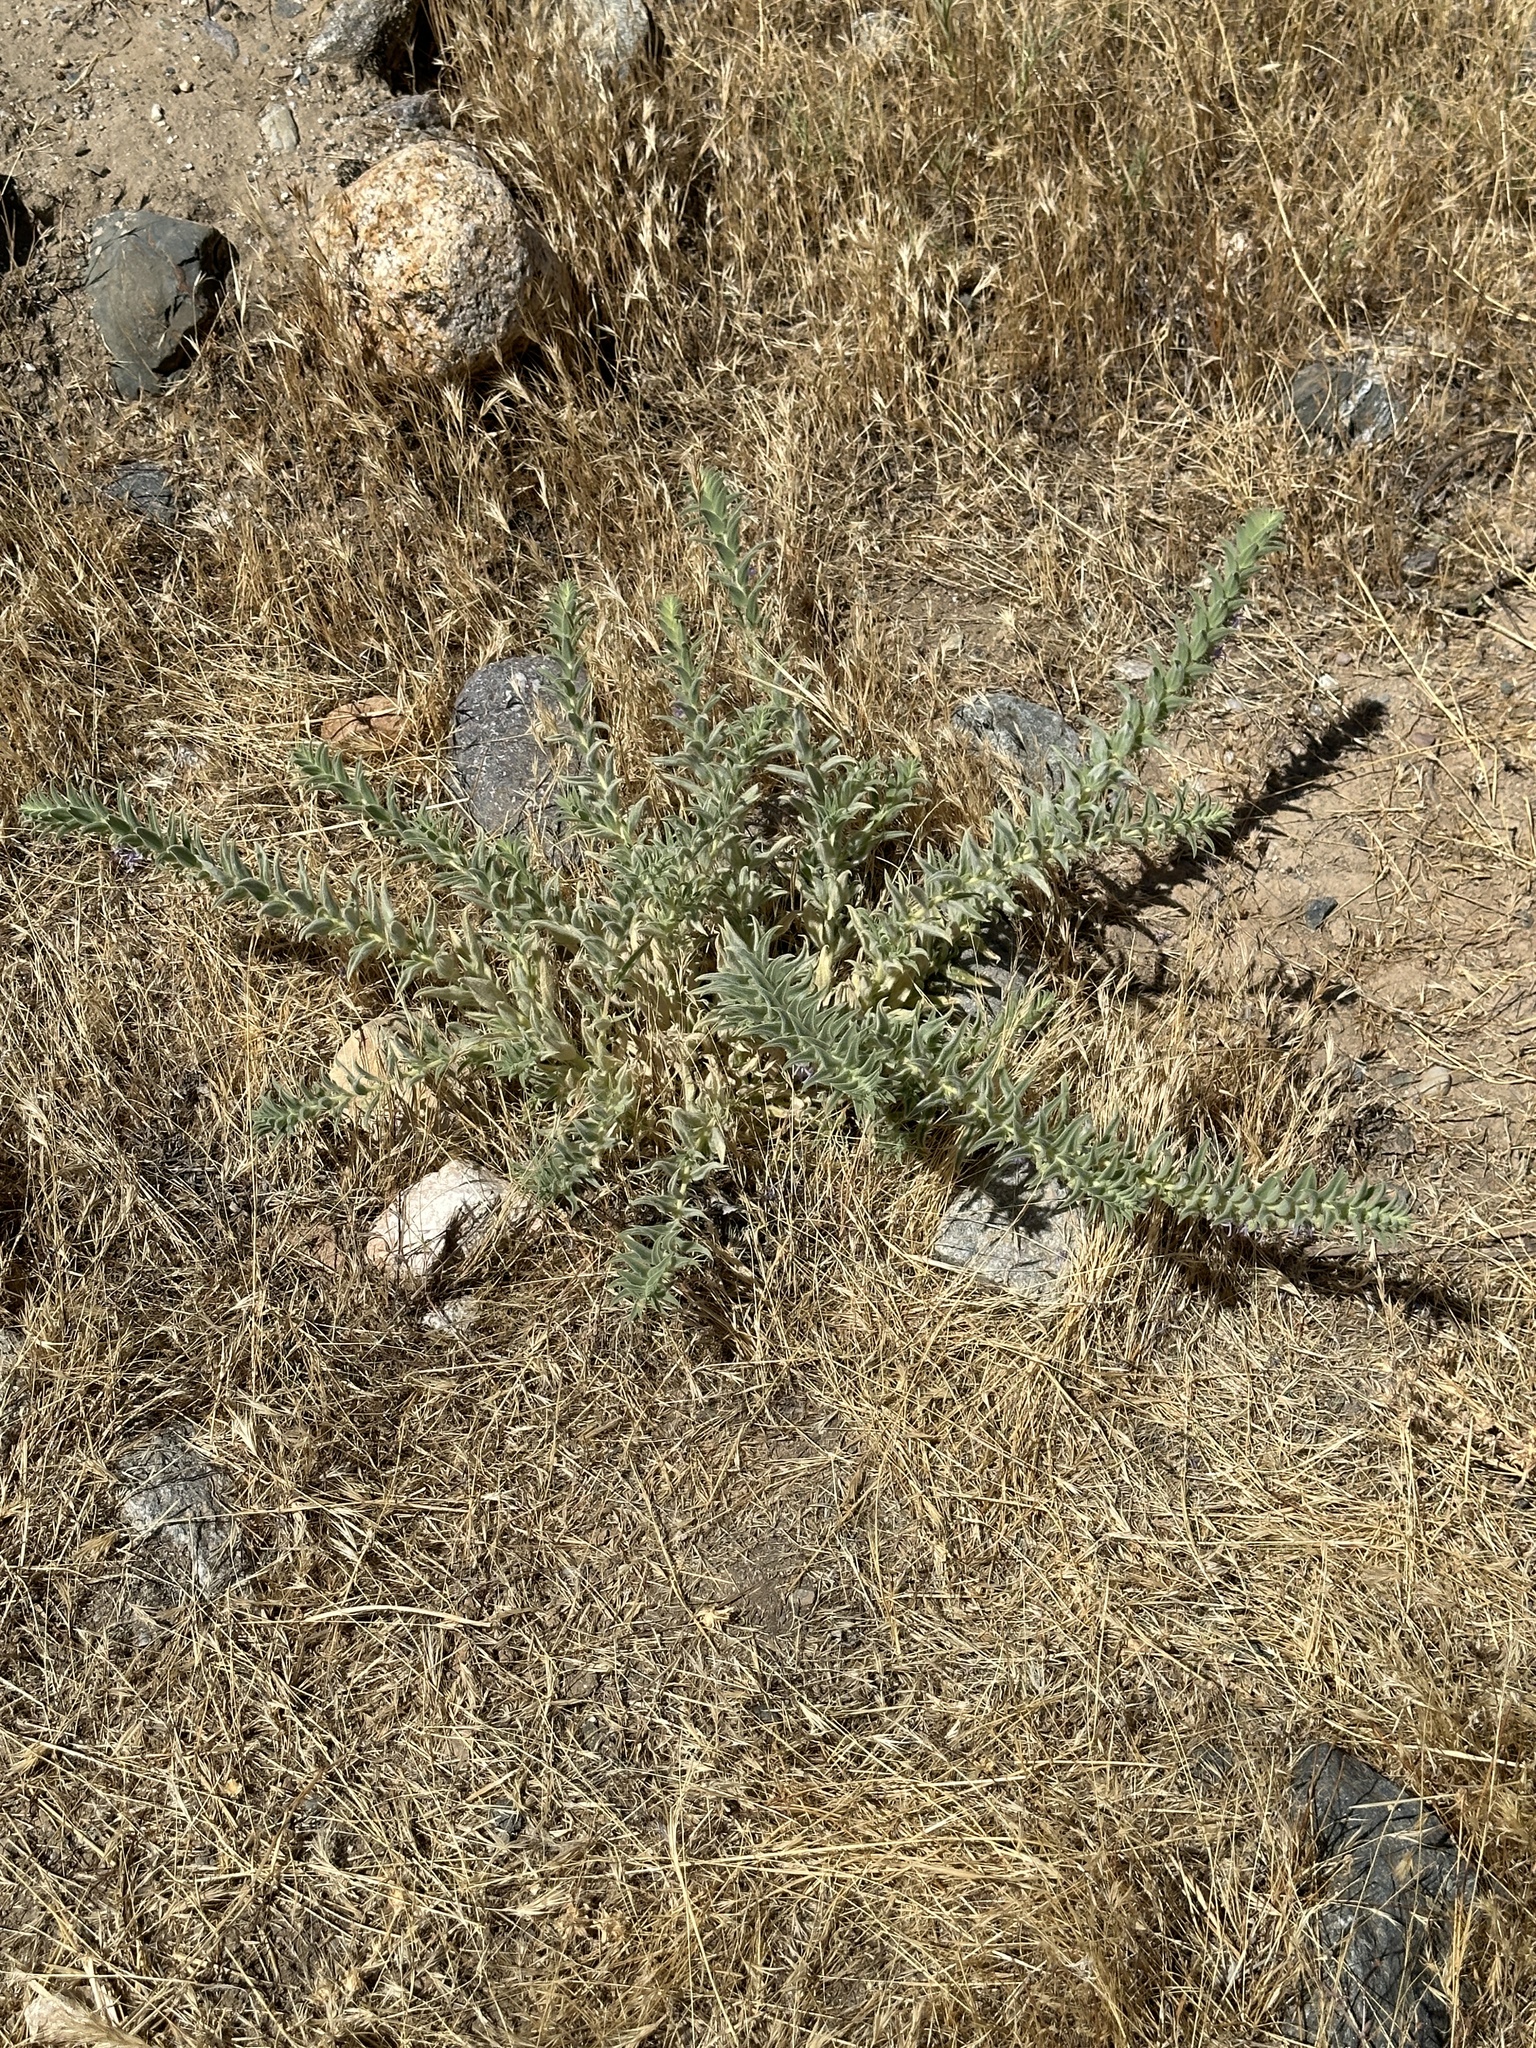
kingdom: Plantae
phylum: Tracheophyta
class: Magnoliopsida
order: Lamiales
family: Lamiaceae
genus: Trichostema
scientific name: Trichostema lanceolatum
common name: Vinegar-weed
